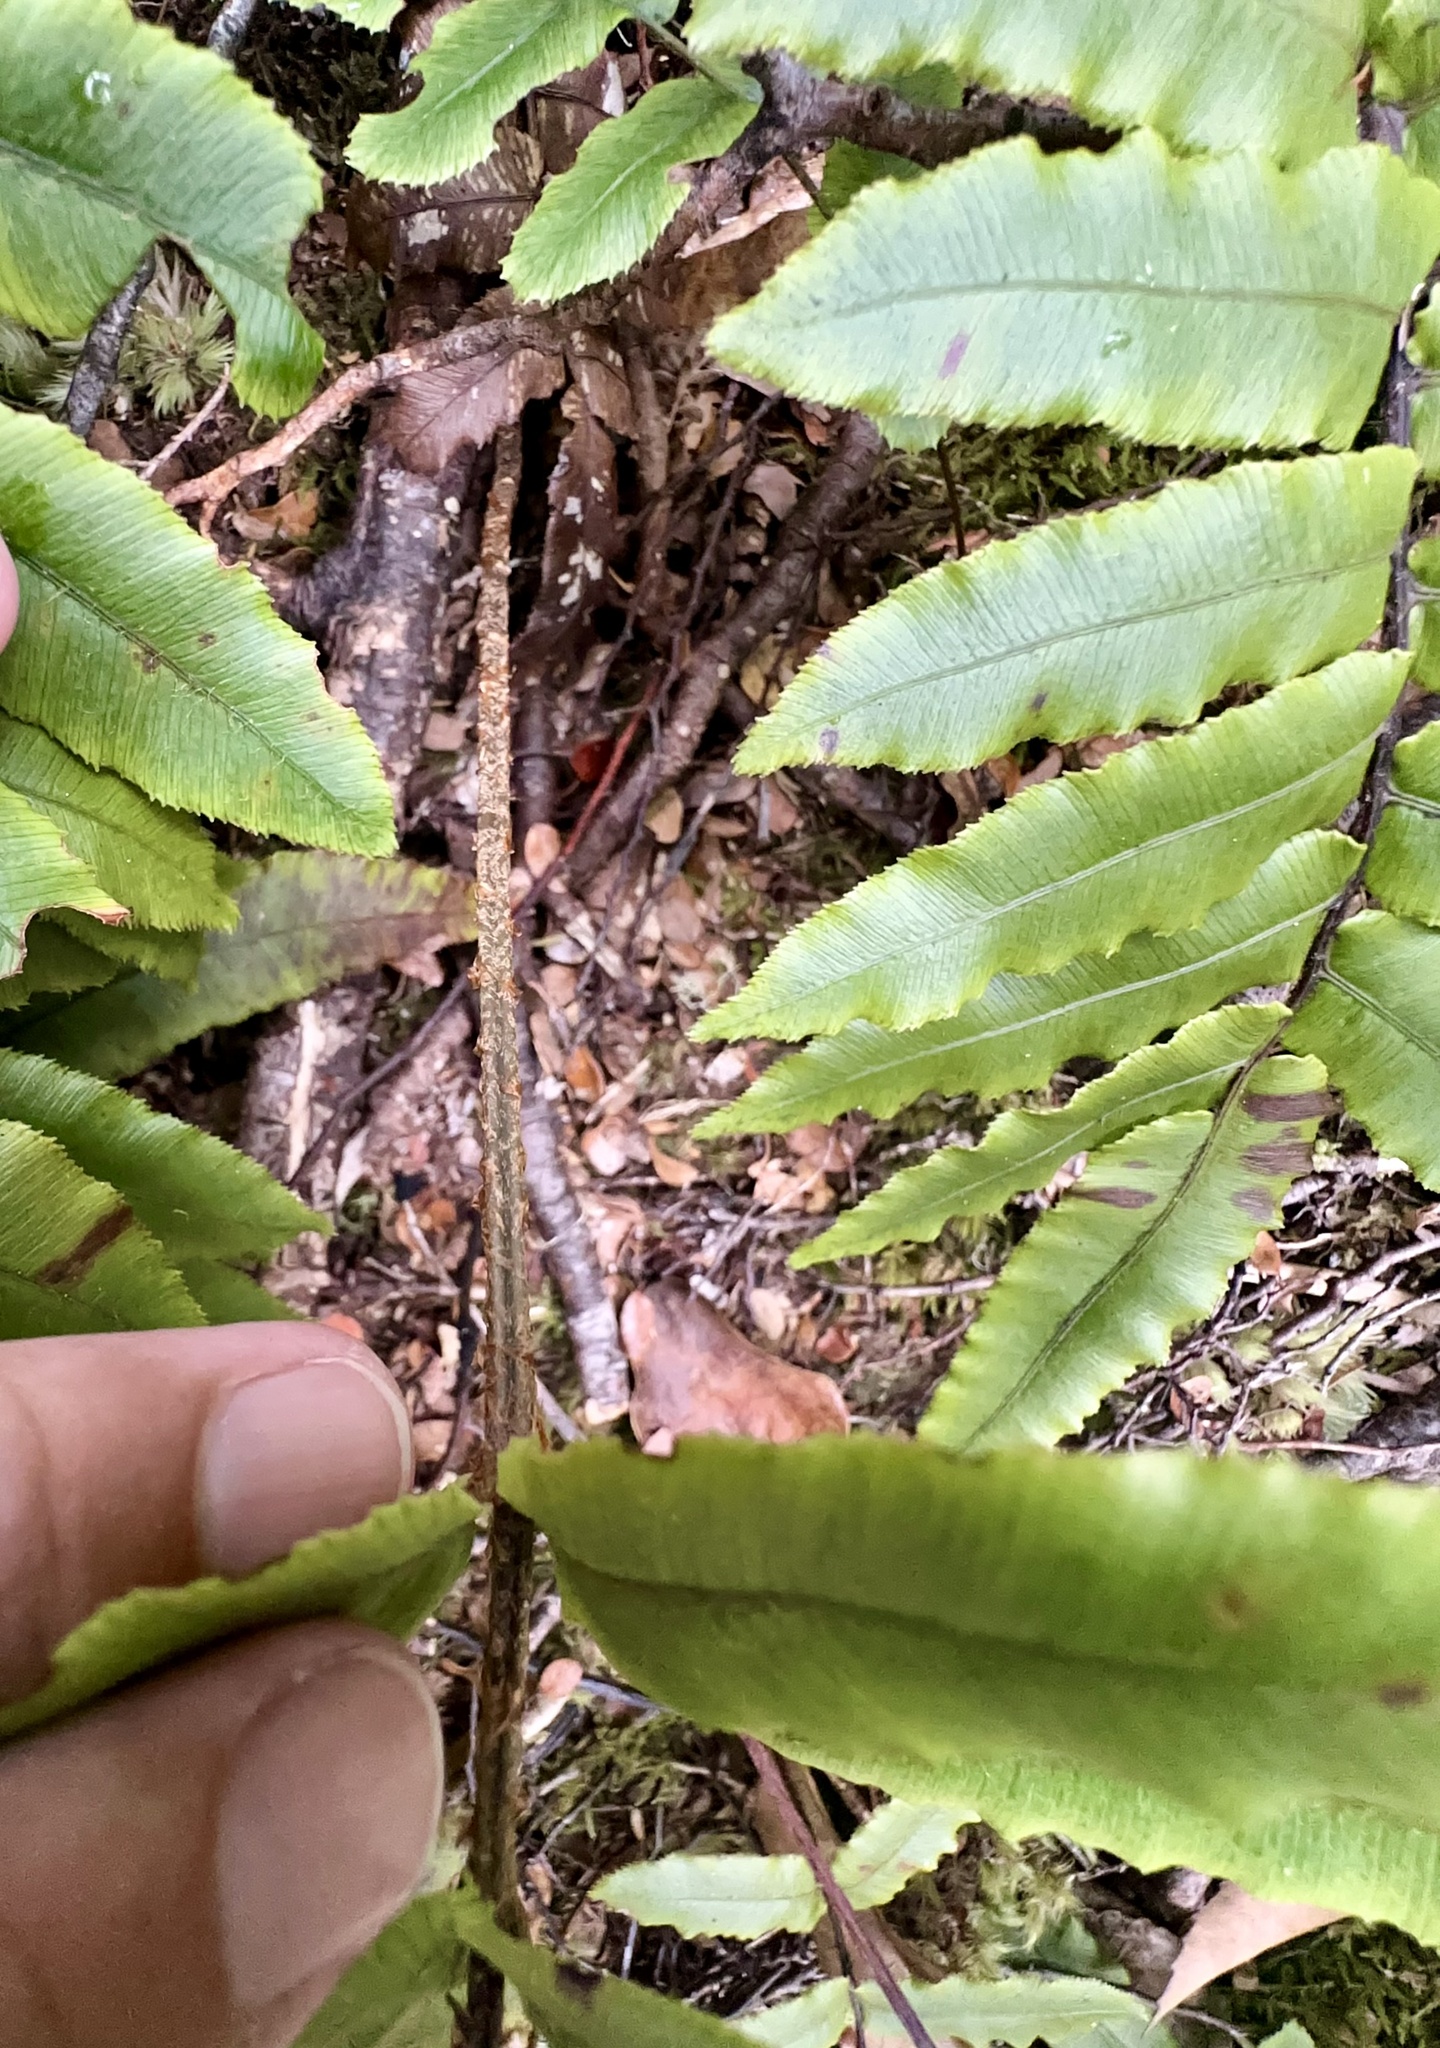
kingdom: Plantae
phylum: Tracheophyta
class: Polypodiopsida
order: Polypodiales
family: Blechnaceae
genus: Parablechnum
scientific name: Parablechnum procerum
